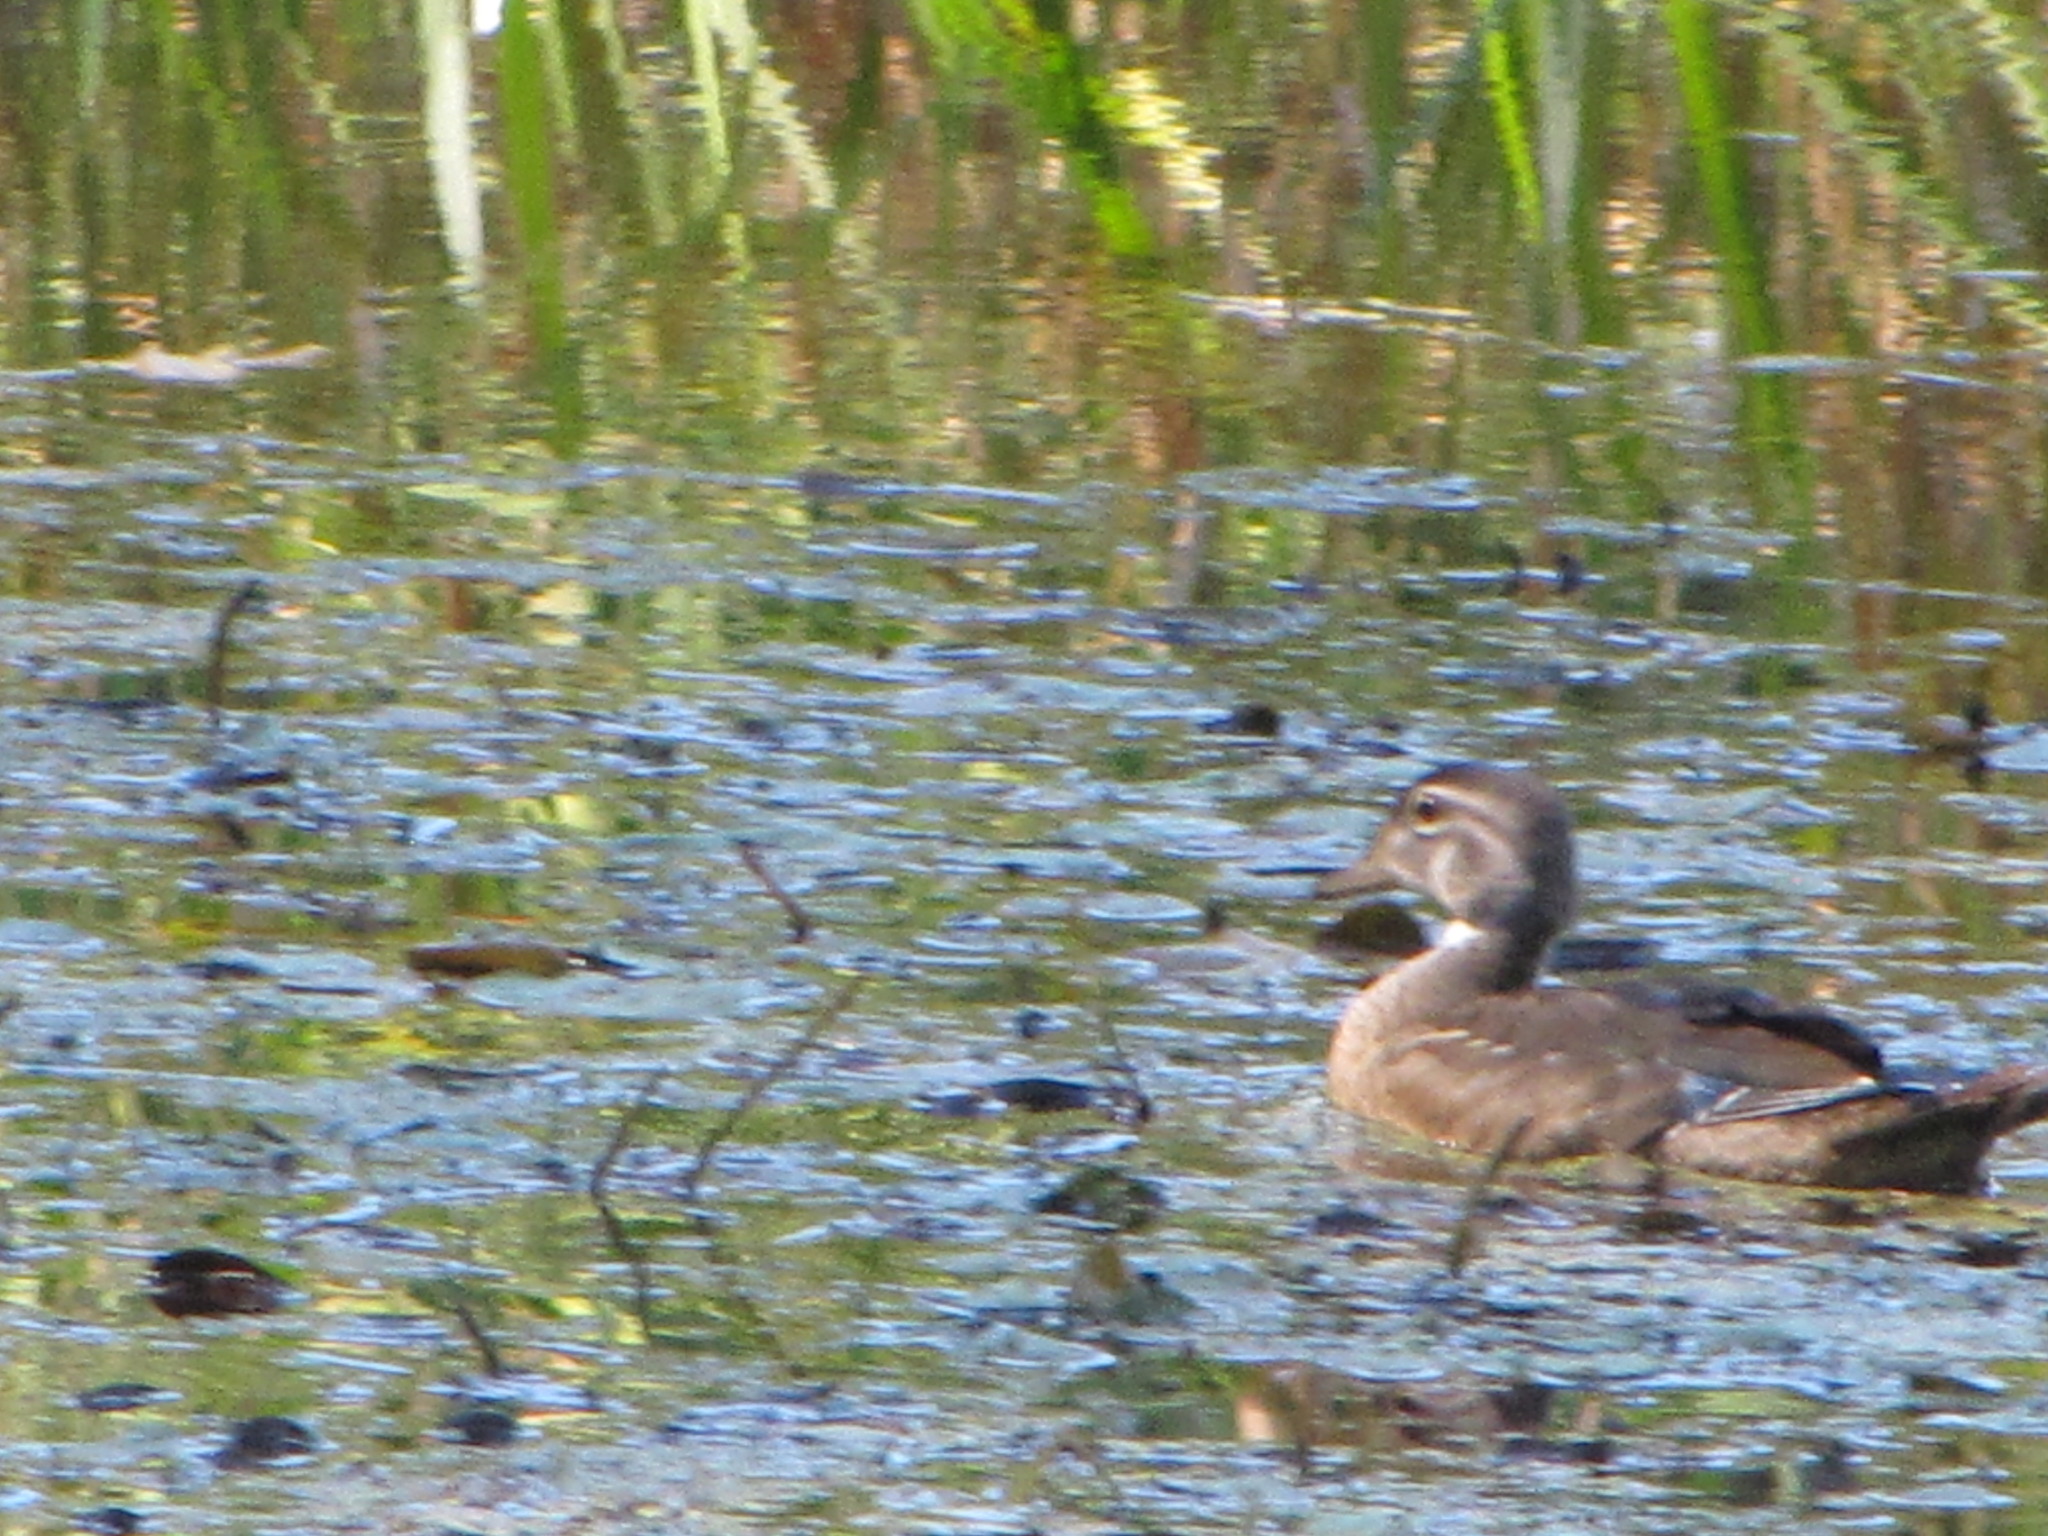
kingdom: Animalia
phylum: Chordata
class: Aves
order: Anseriformes
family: Anatidae
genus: Aix
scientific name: Aix sponsa
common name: Wood duck
